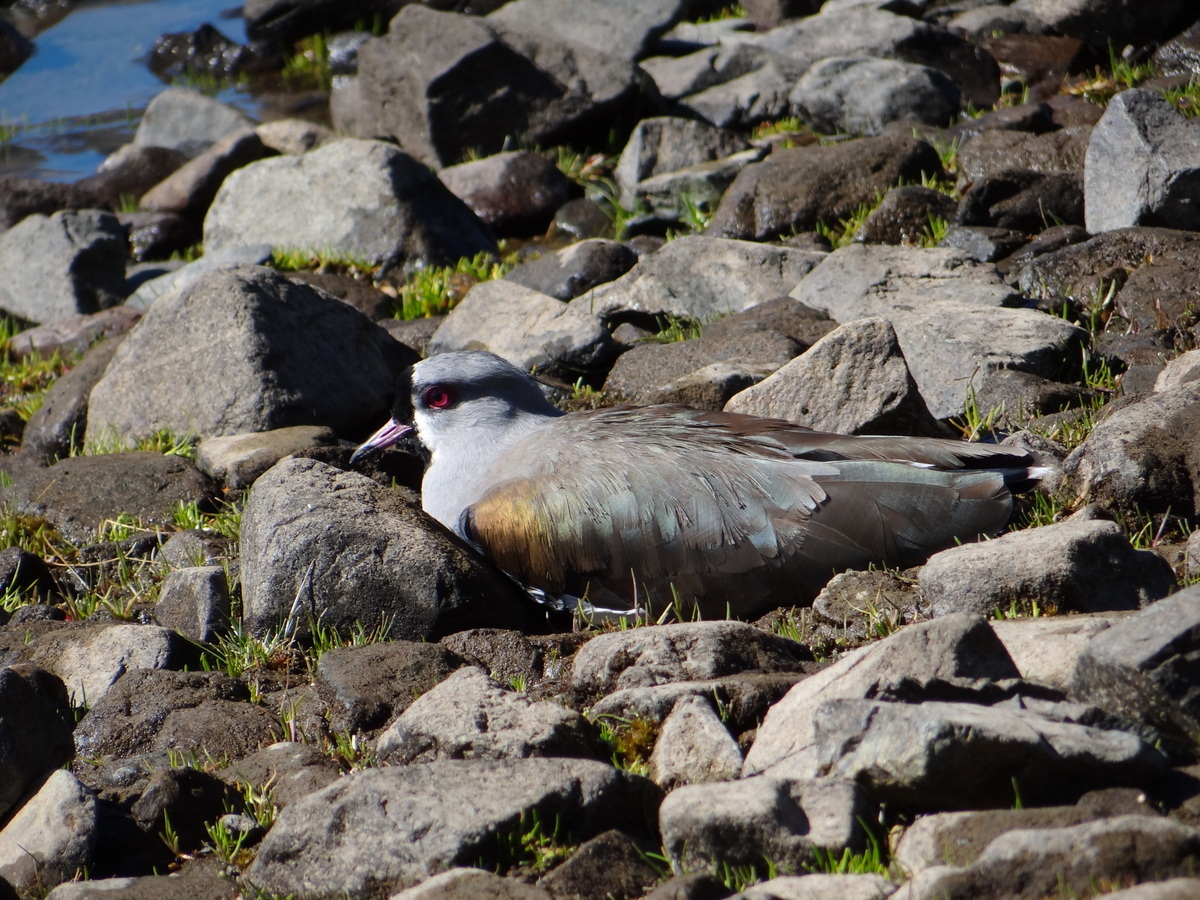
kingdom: Animalia
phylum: Chordata
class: Aves
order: Charadriiformes
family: Charadriidae
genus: Vanellus
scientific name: Vanellus chilensis
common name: Southern lapwing
